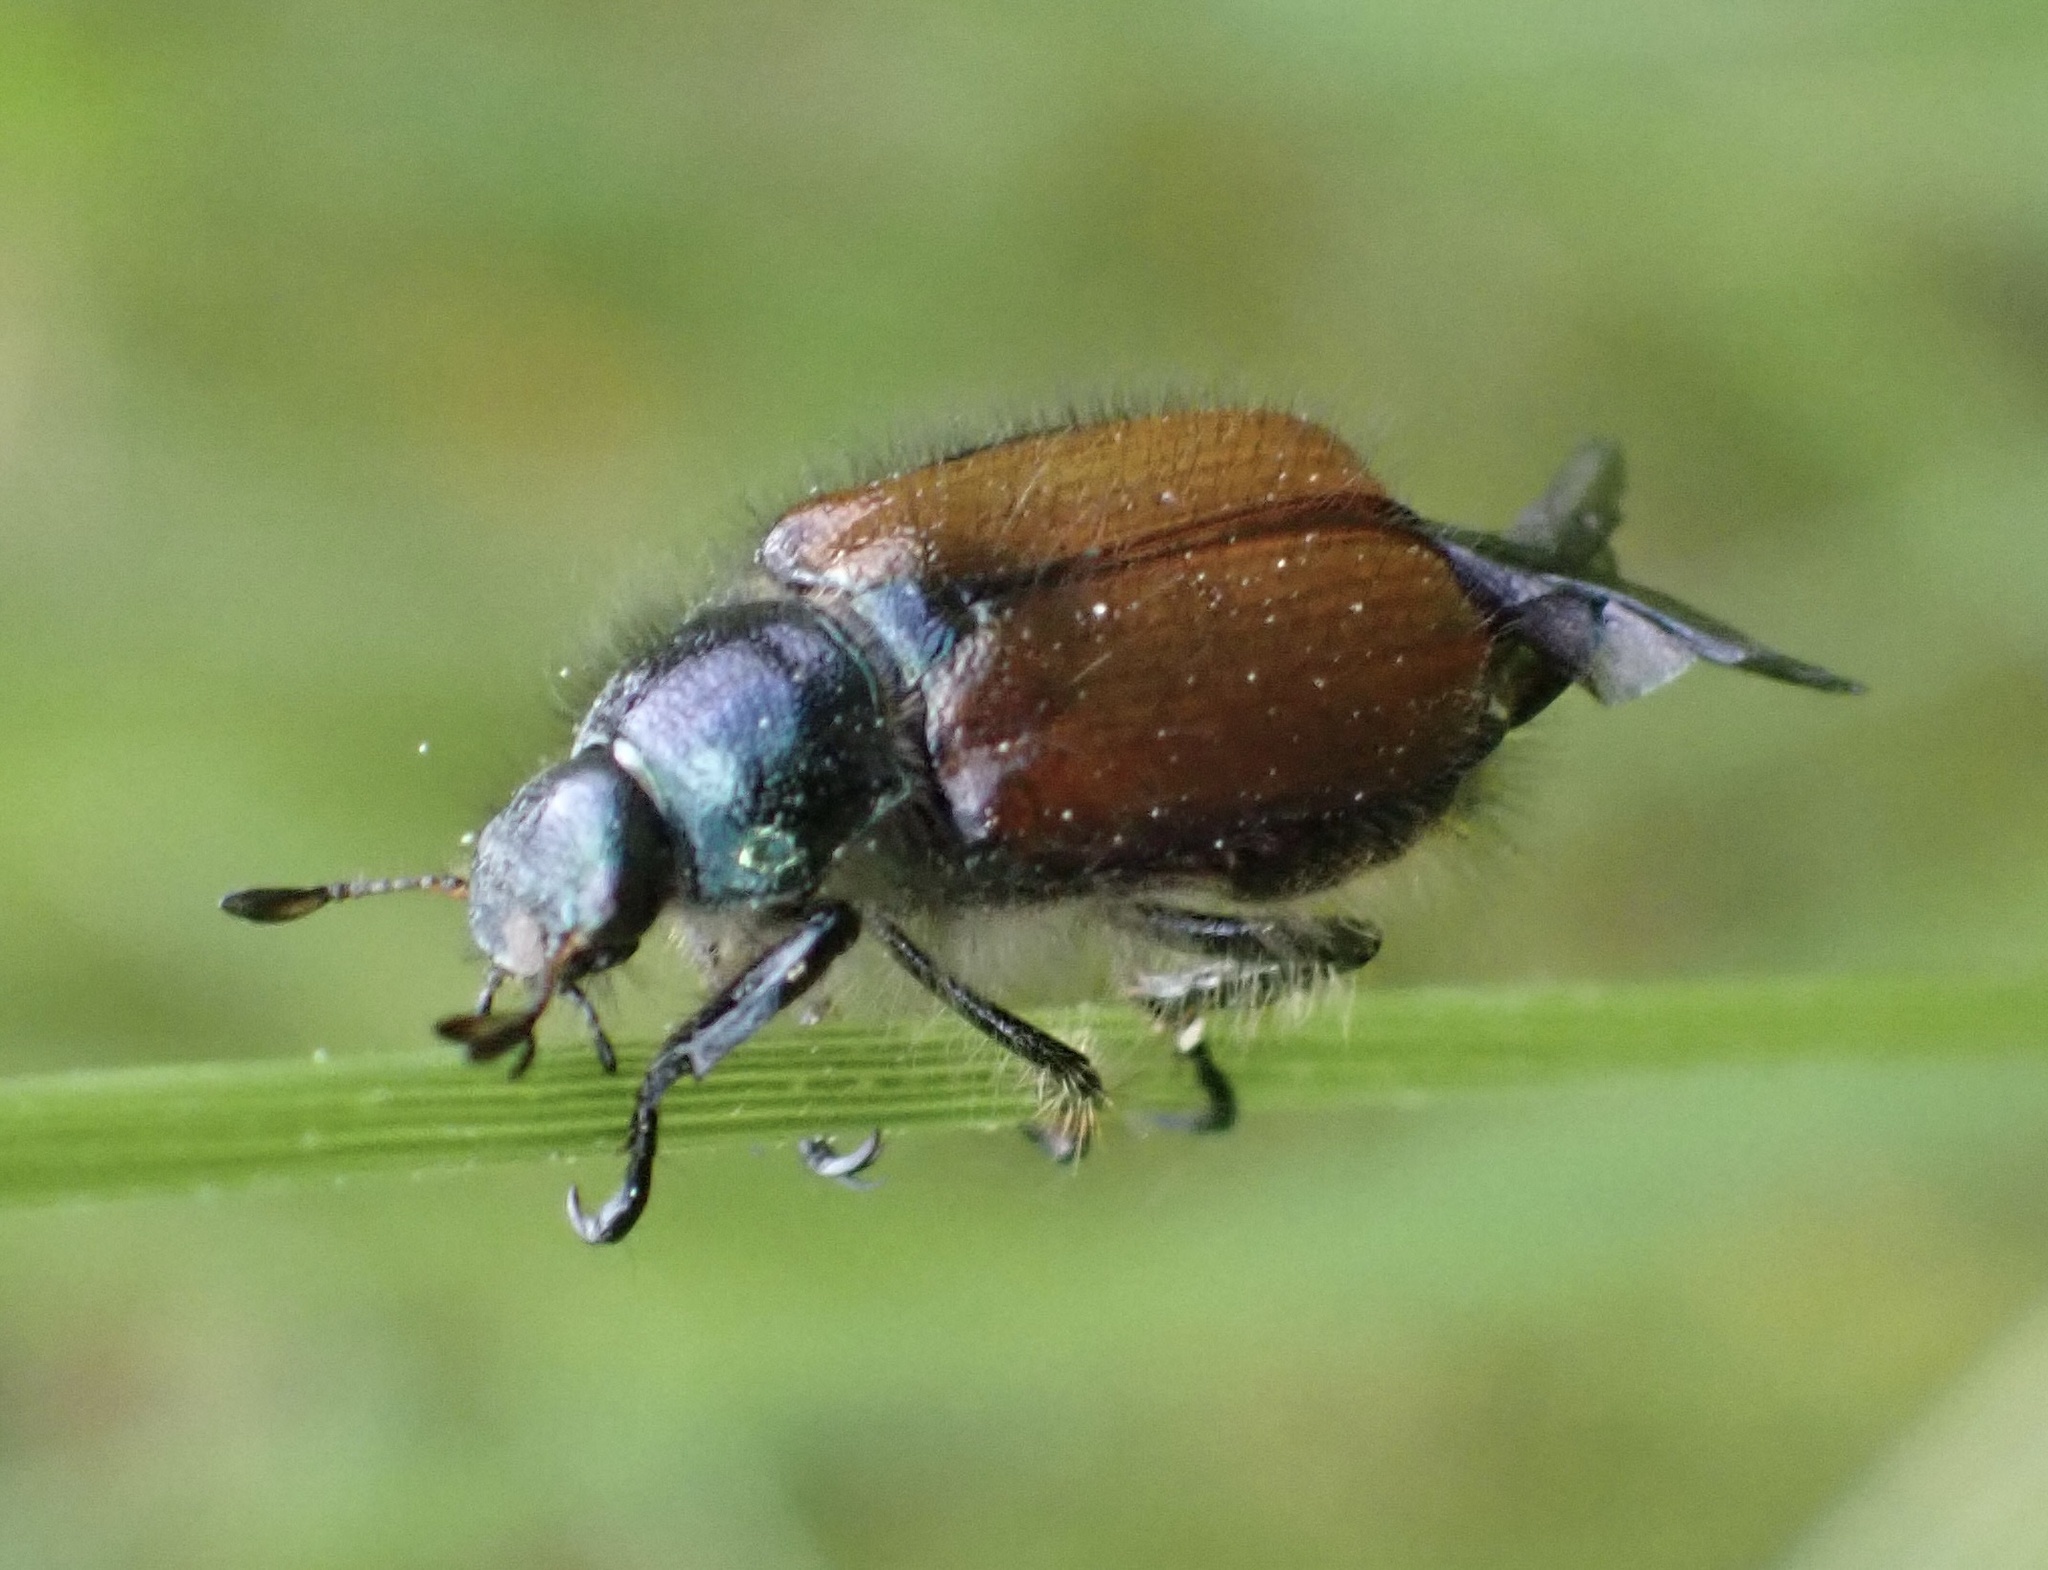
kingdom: Animalia
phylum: Arthropoda
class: Insecta
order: Coleoptera
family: Scarabaeidae
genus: Phyllopertha
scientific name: Phyllopertha horticola
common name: Garden chafer
